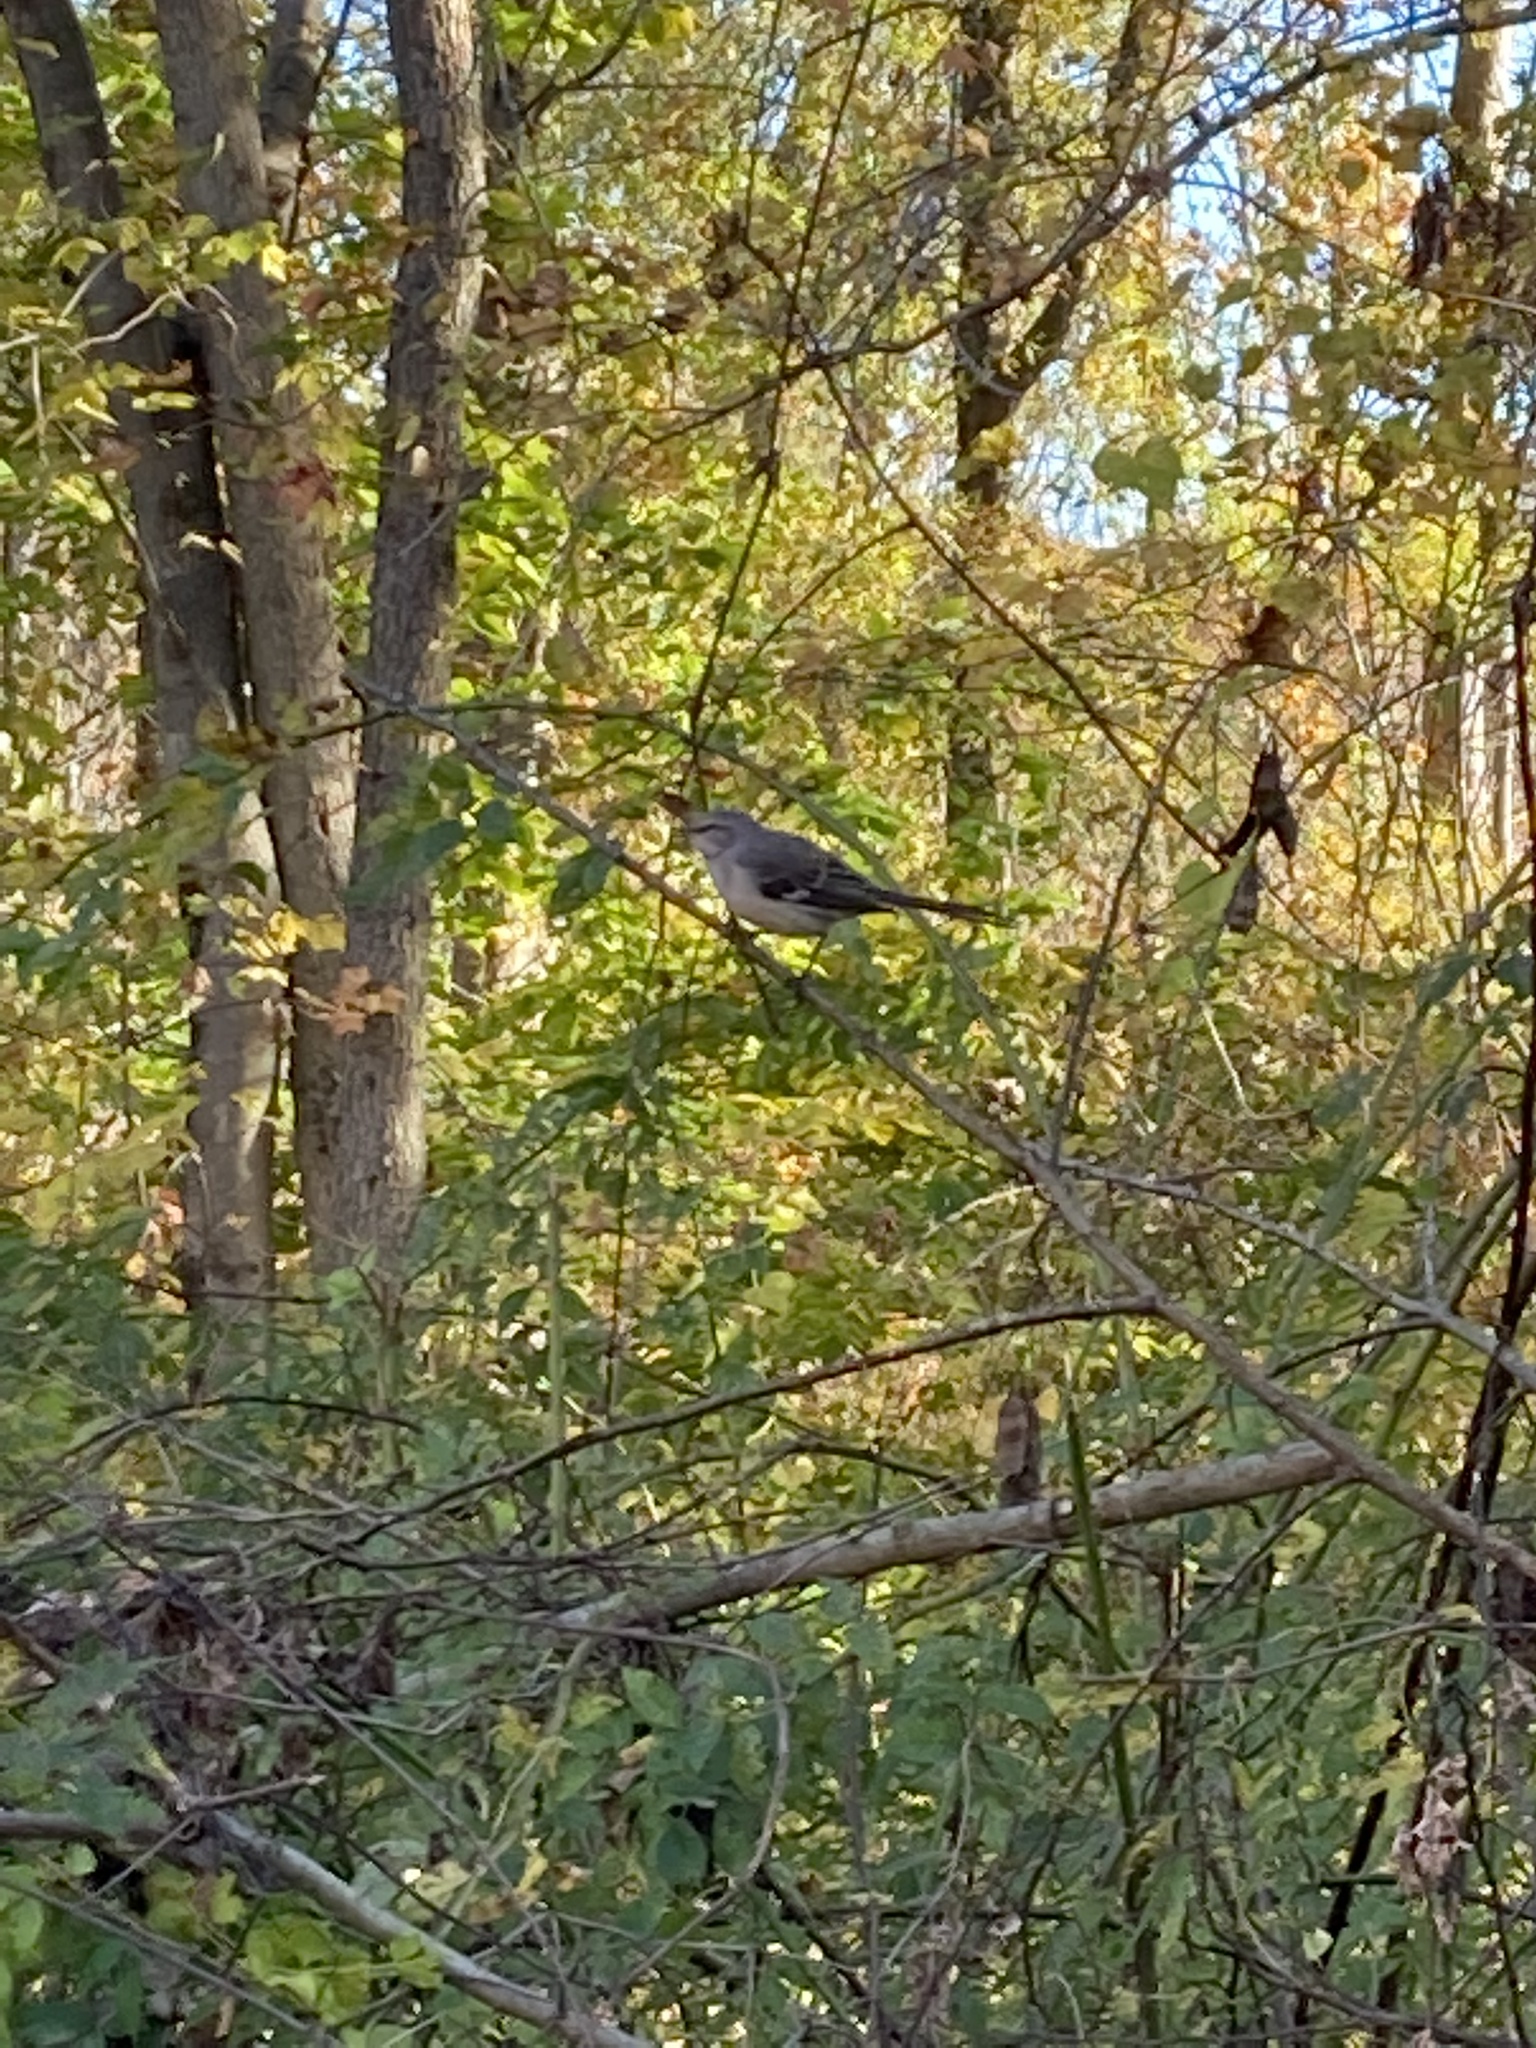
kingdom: Animalia
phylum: Chordata
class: Aves
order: Passeriformes
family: Mimidae
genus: Mimus
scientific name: Mimus polyglottos
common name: Northern mockingbird
